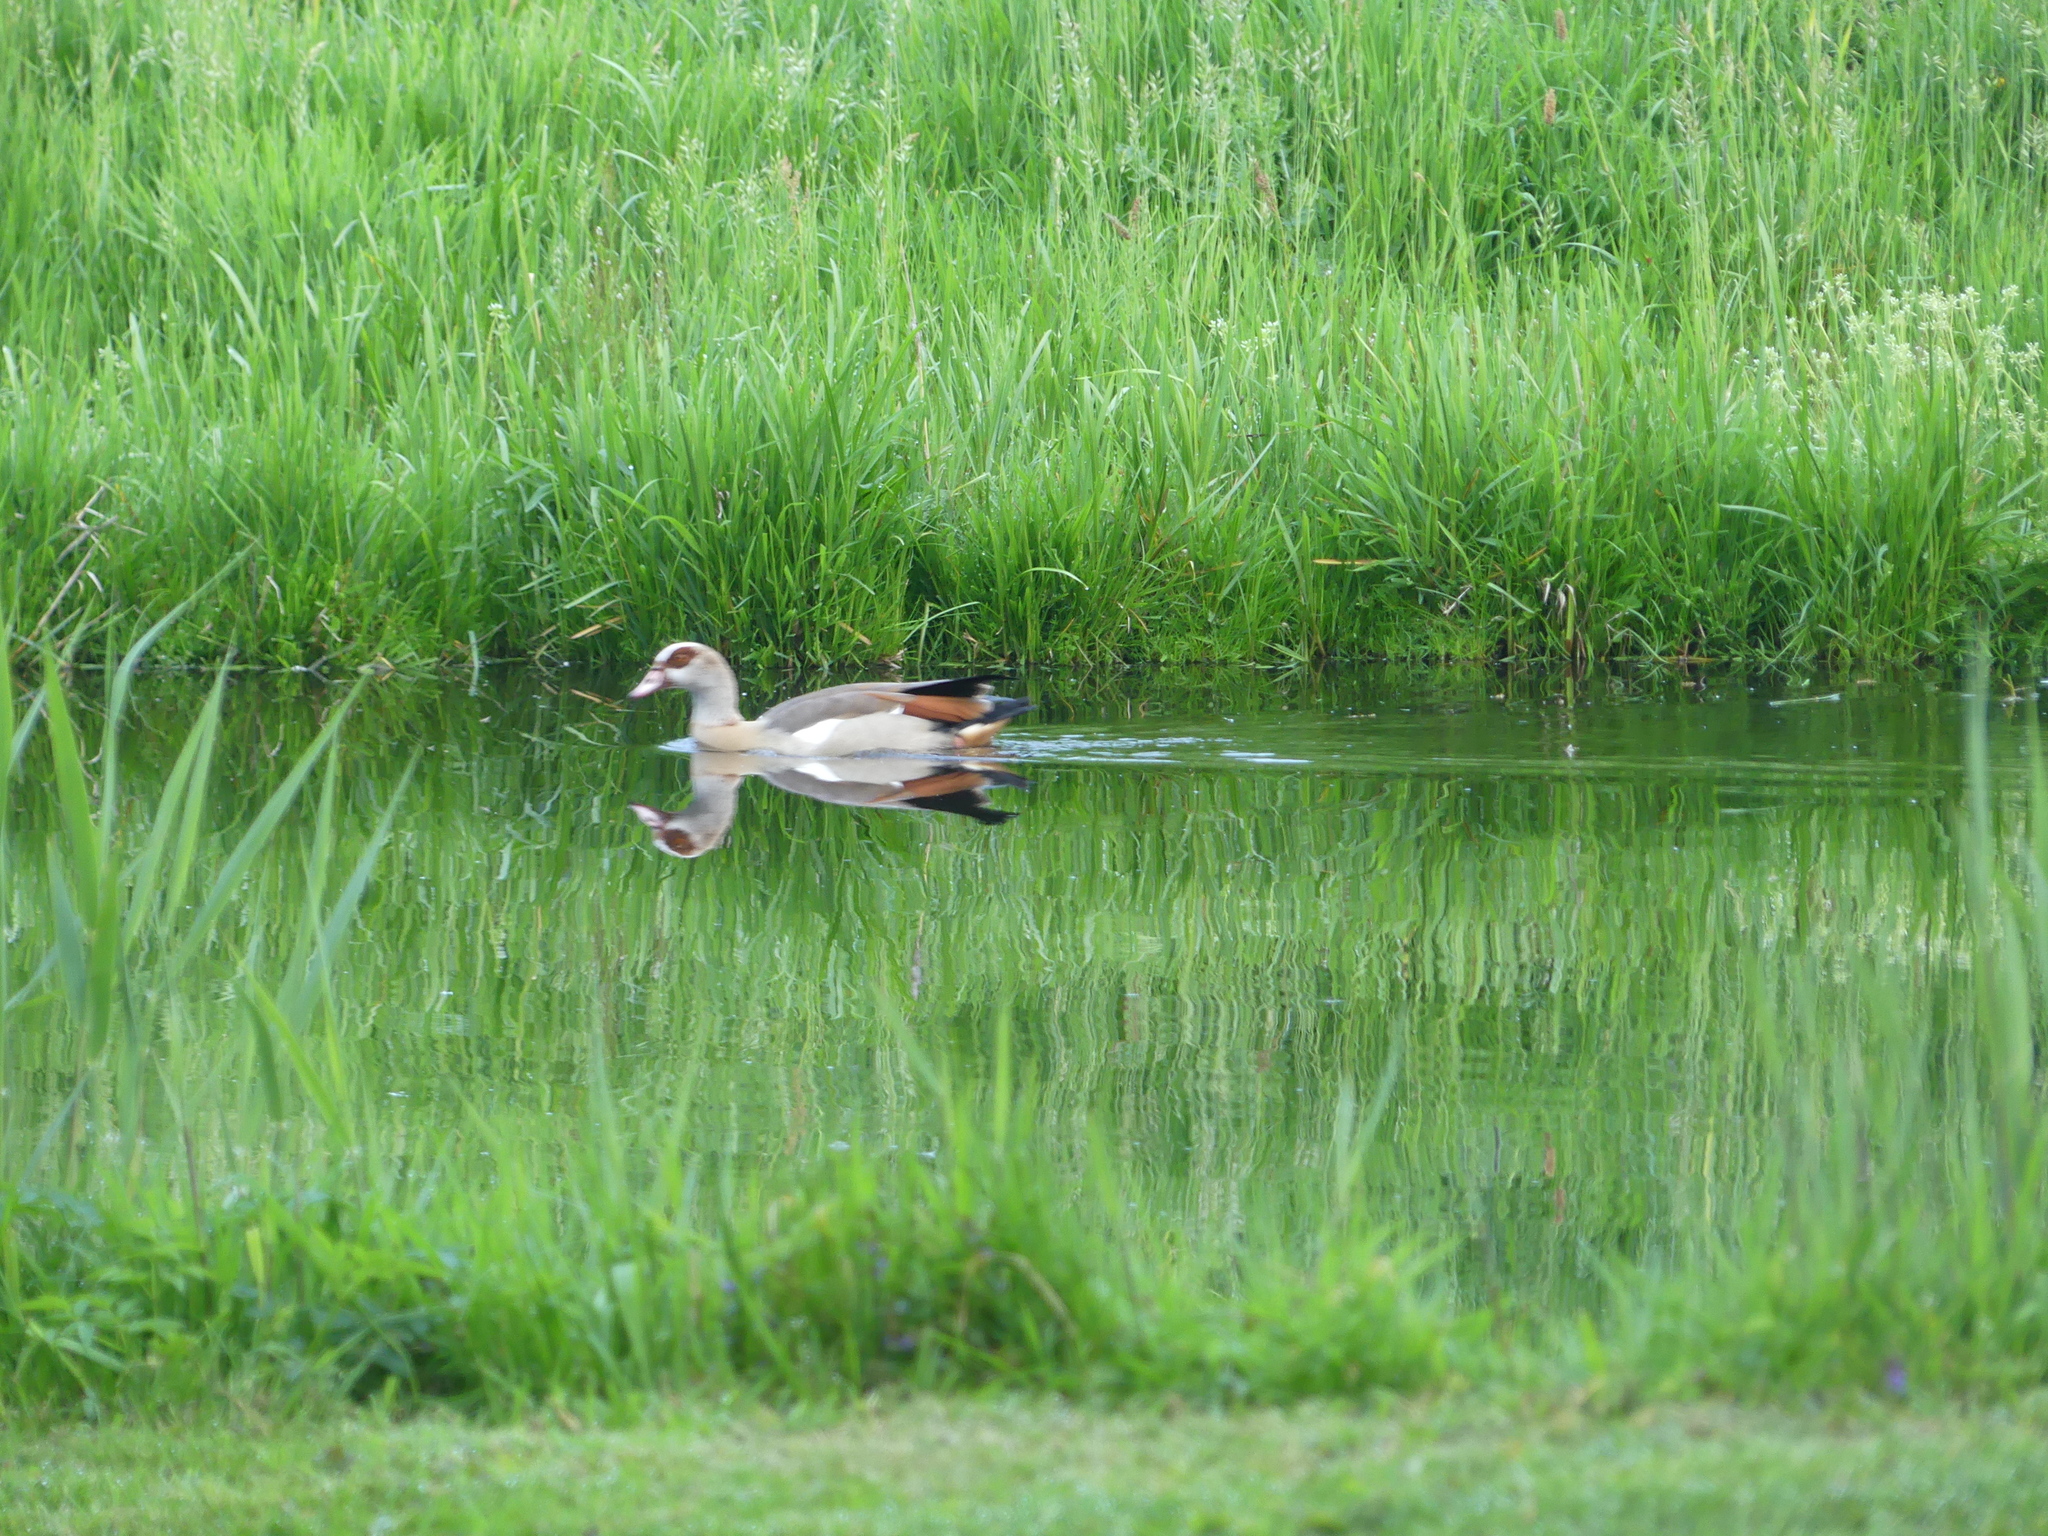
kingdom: Animalia
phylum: Chordata
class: Aves
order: Anseriformes
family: Anatidae
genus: Alopochen
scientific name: Alopochen aegyptiaca
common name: Egyptian goose
